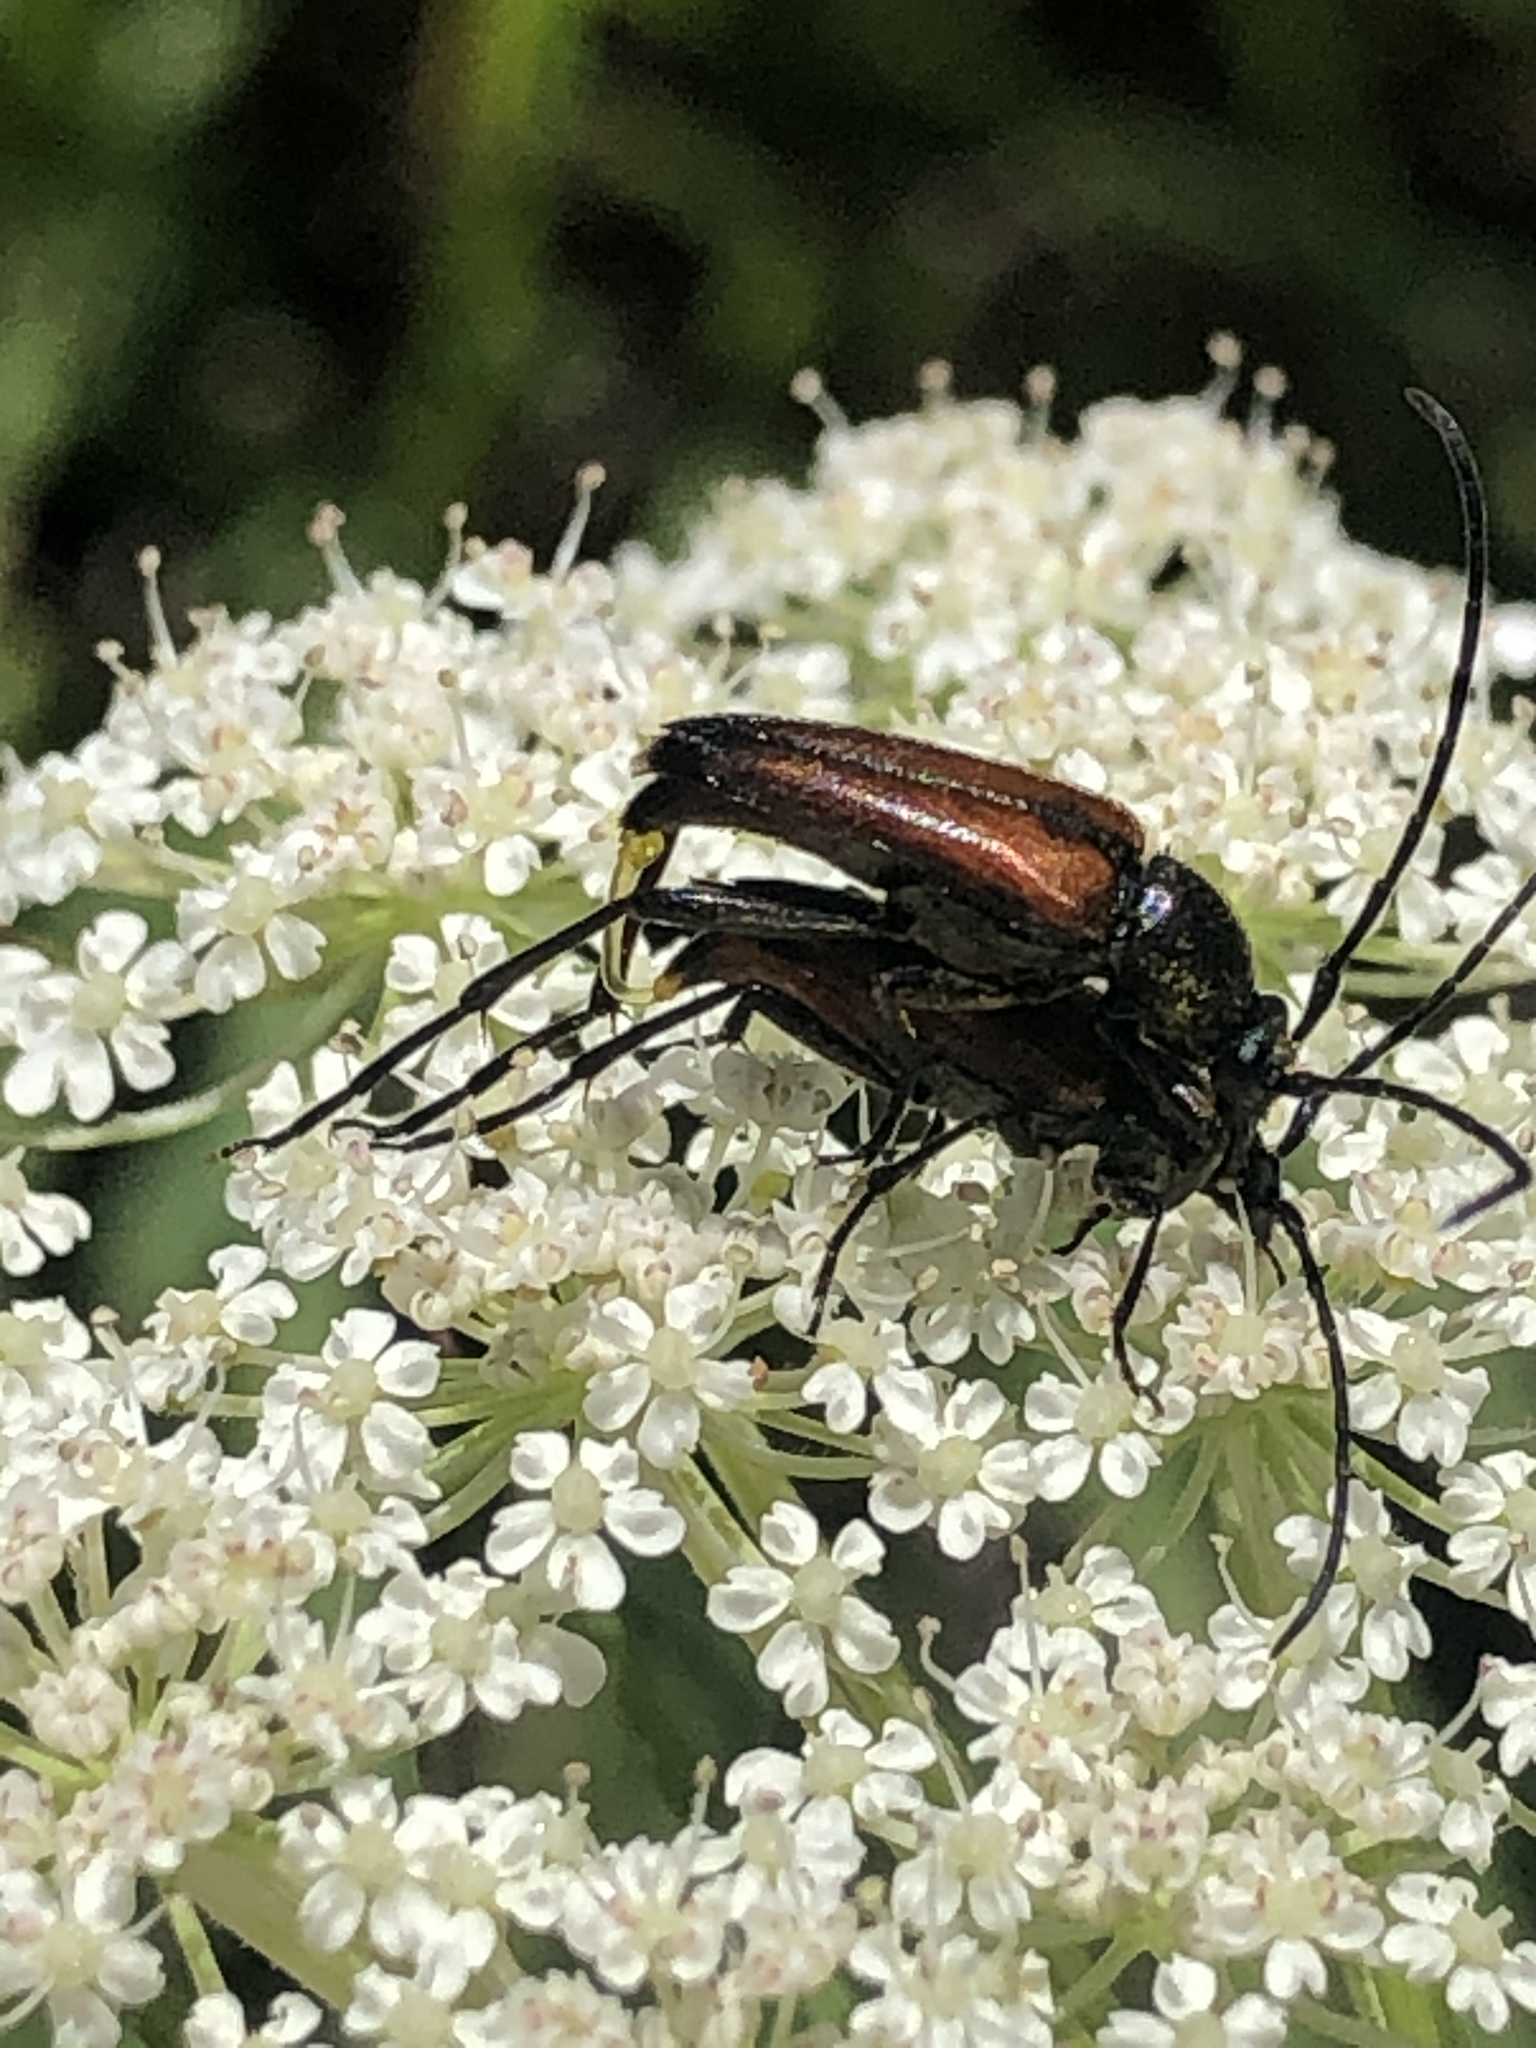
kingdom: Animalia
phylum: Arthropoda
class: Insecta
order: Coleoptera
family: Cerambycidae
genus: Stenurella
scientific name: Stenurella melanura
